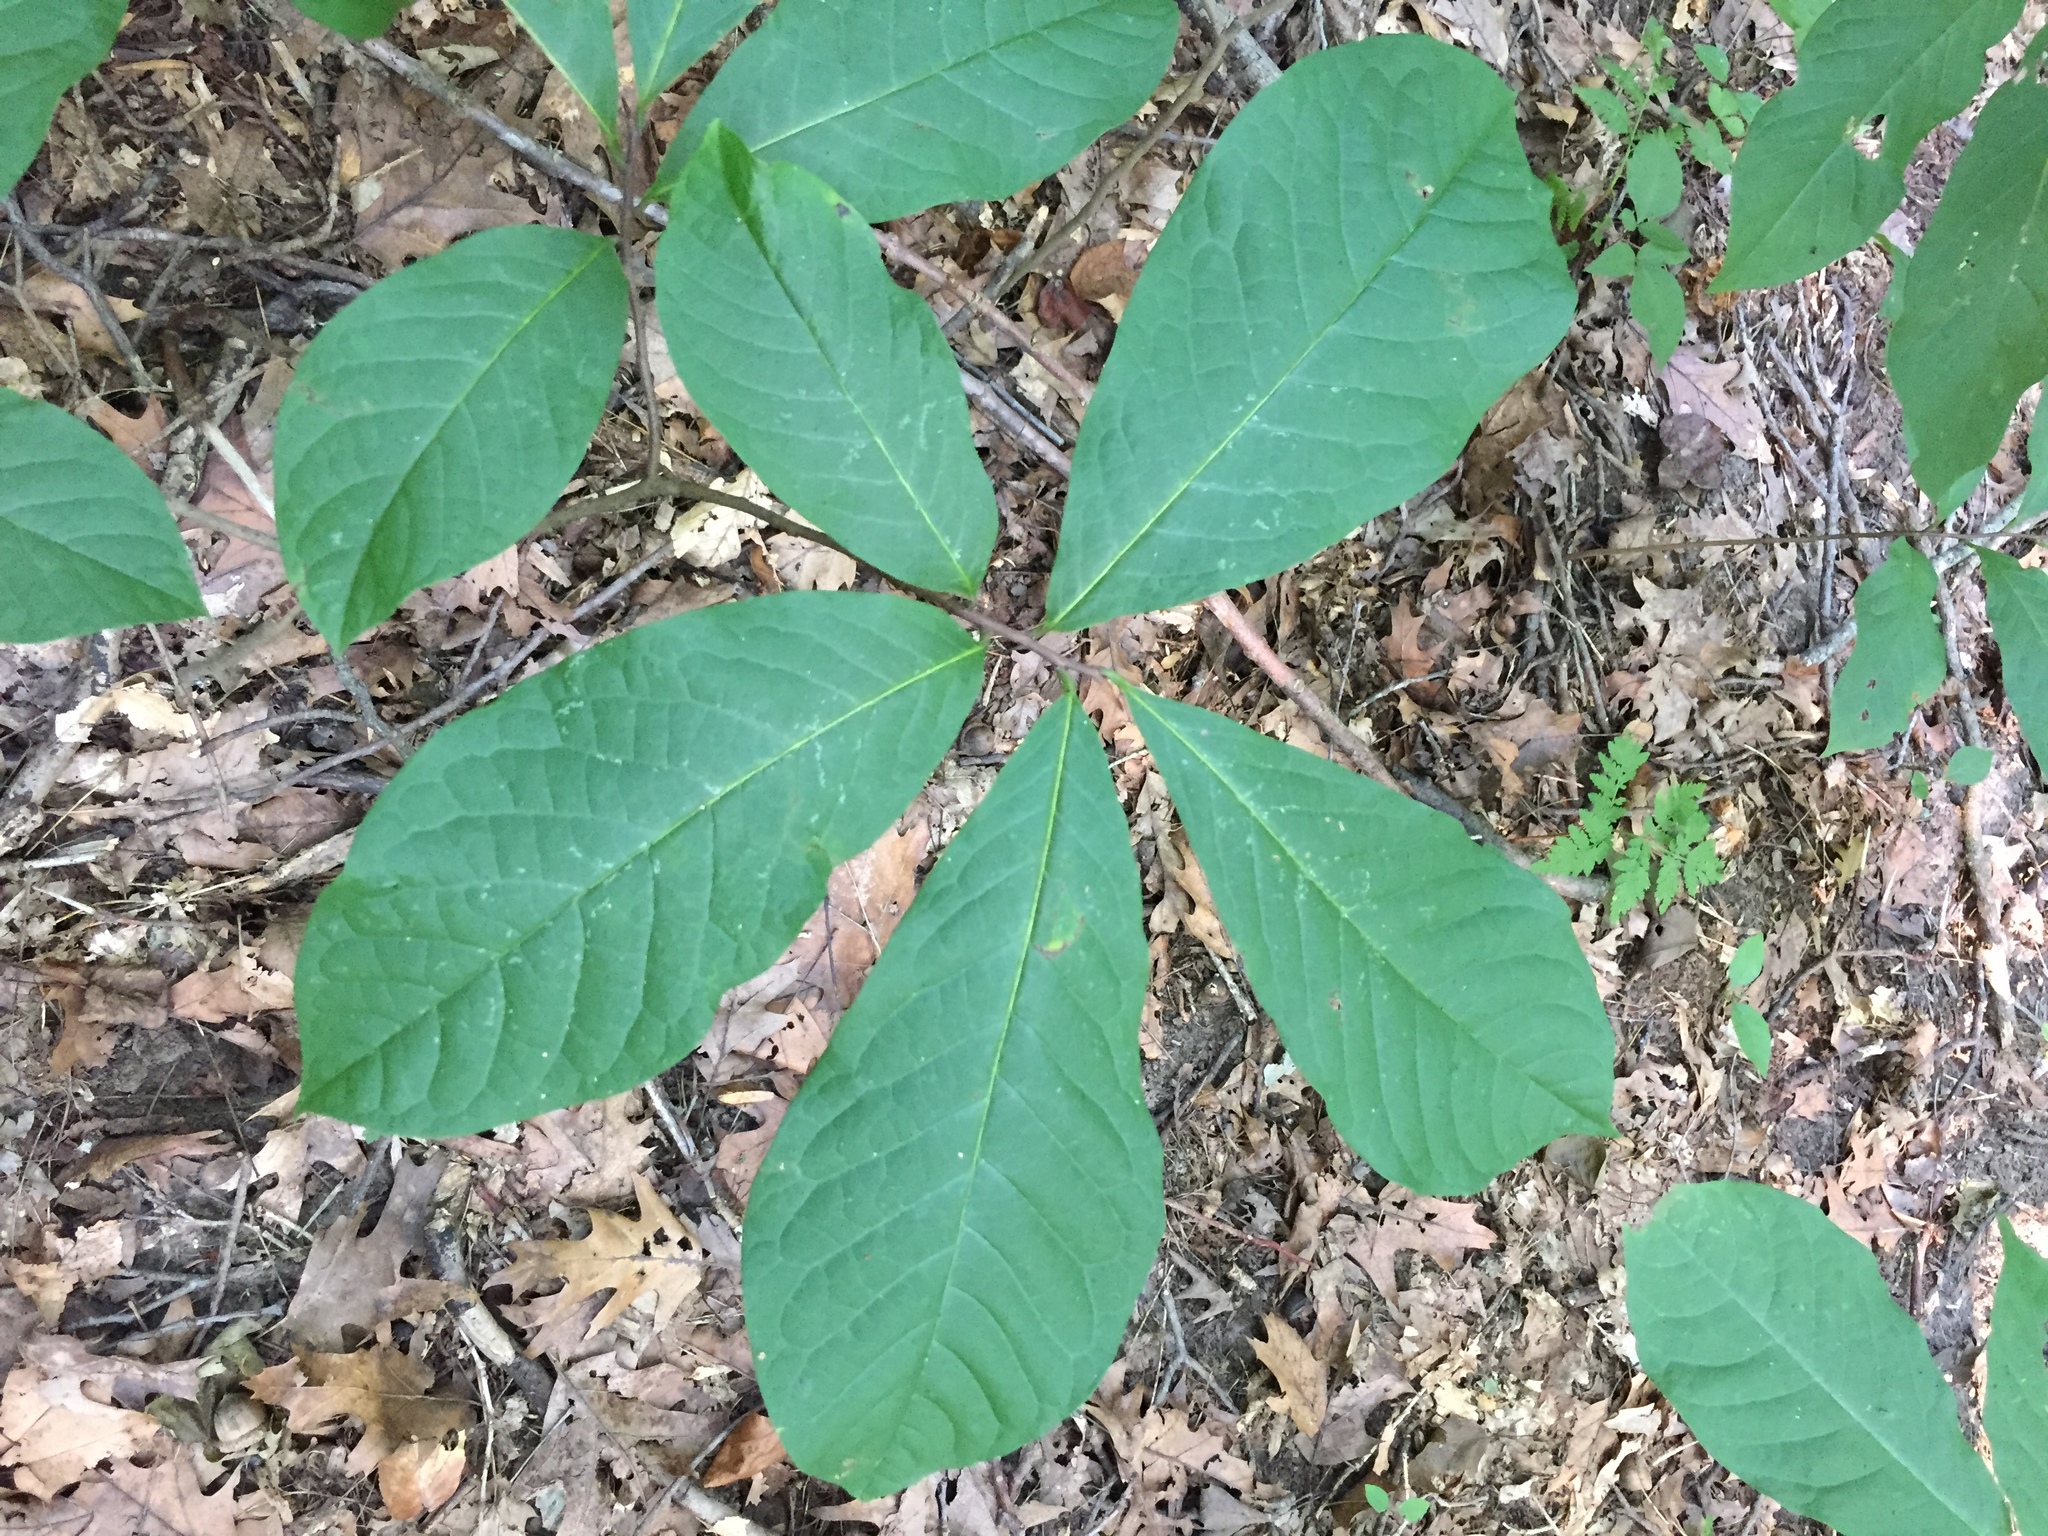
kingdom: Plantae
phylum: Tracheophyta
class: Magnoliopsida
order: Magnoliales
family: Annonaceae
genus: Asimina
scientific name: Asimina triloba
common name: Dog-banana
